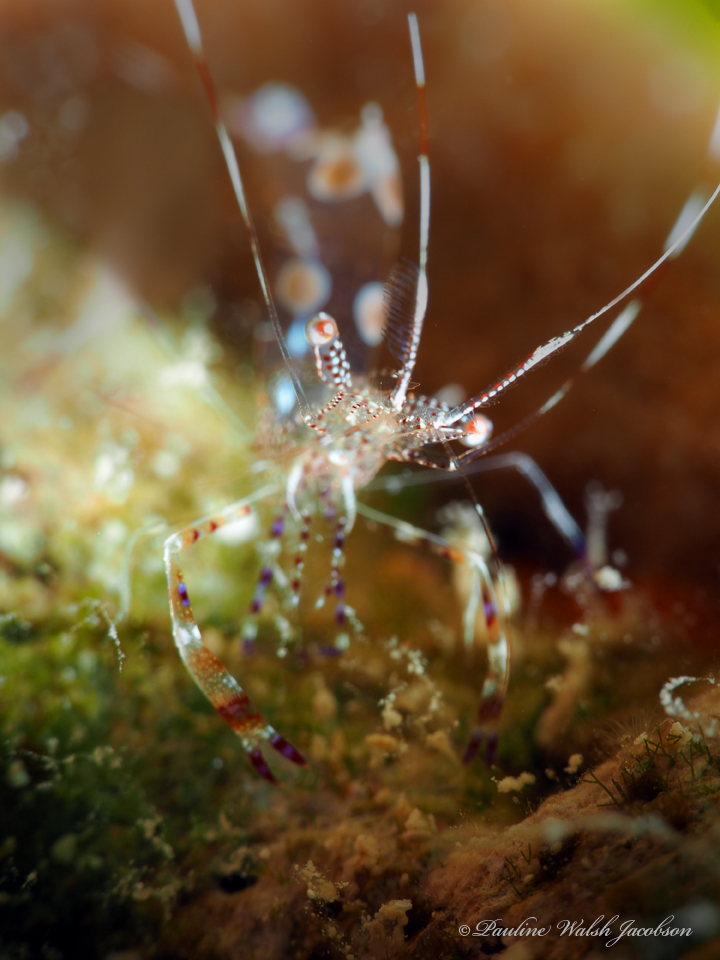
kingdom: Animalia
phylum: Arthropoda
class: Malacostraca
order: Decapoda
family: Palaemonidae
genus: Periclimenes
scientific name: Periclimenes yucatanicus
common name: Spotted cleaning shrimp
